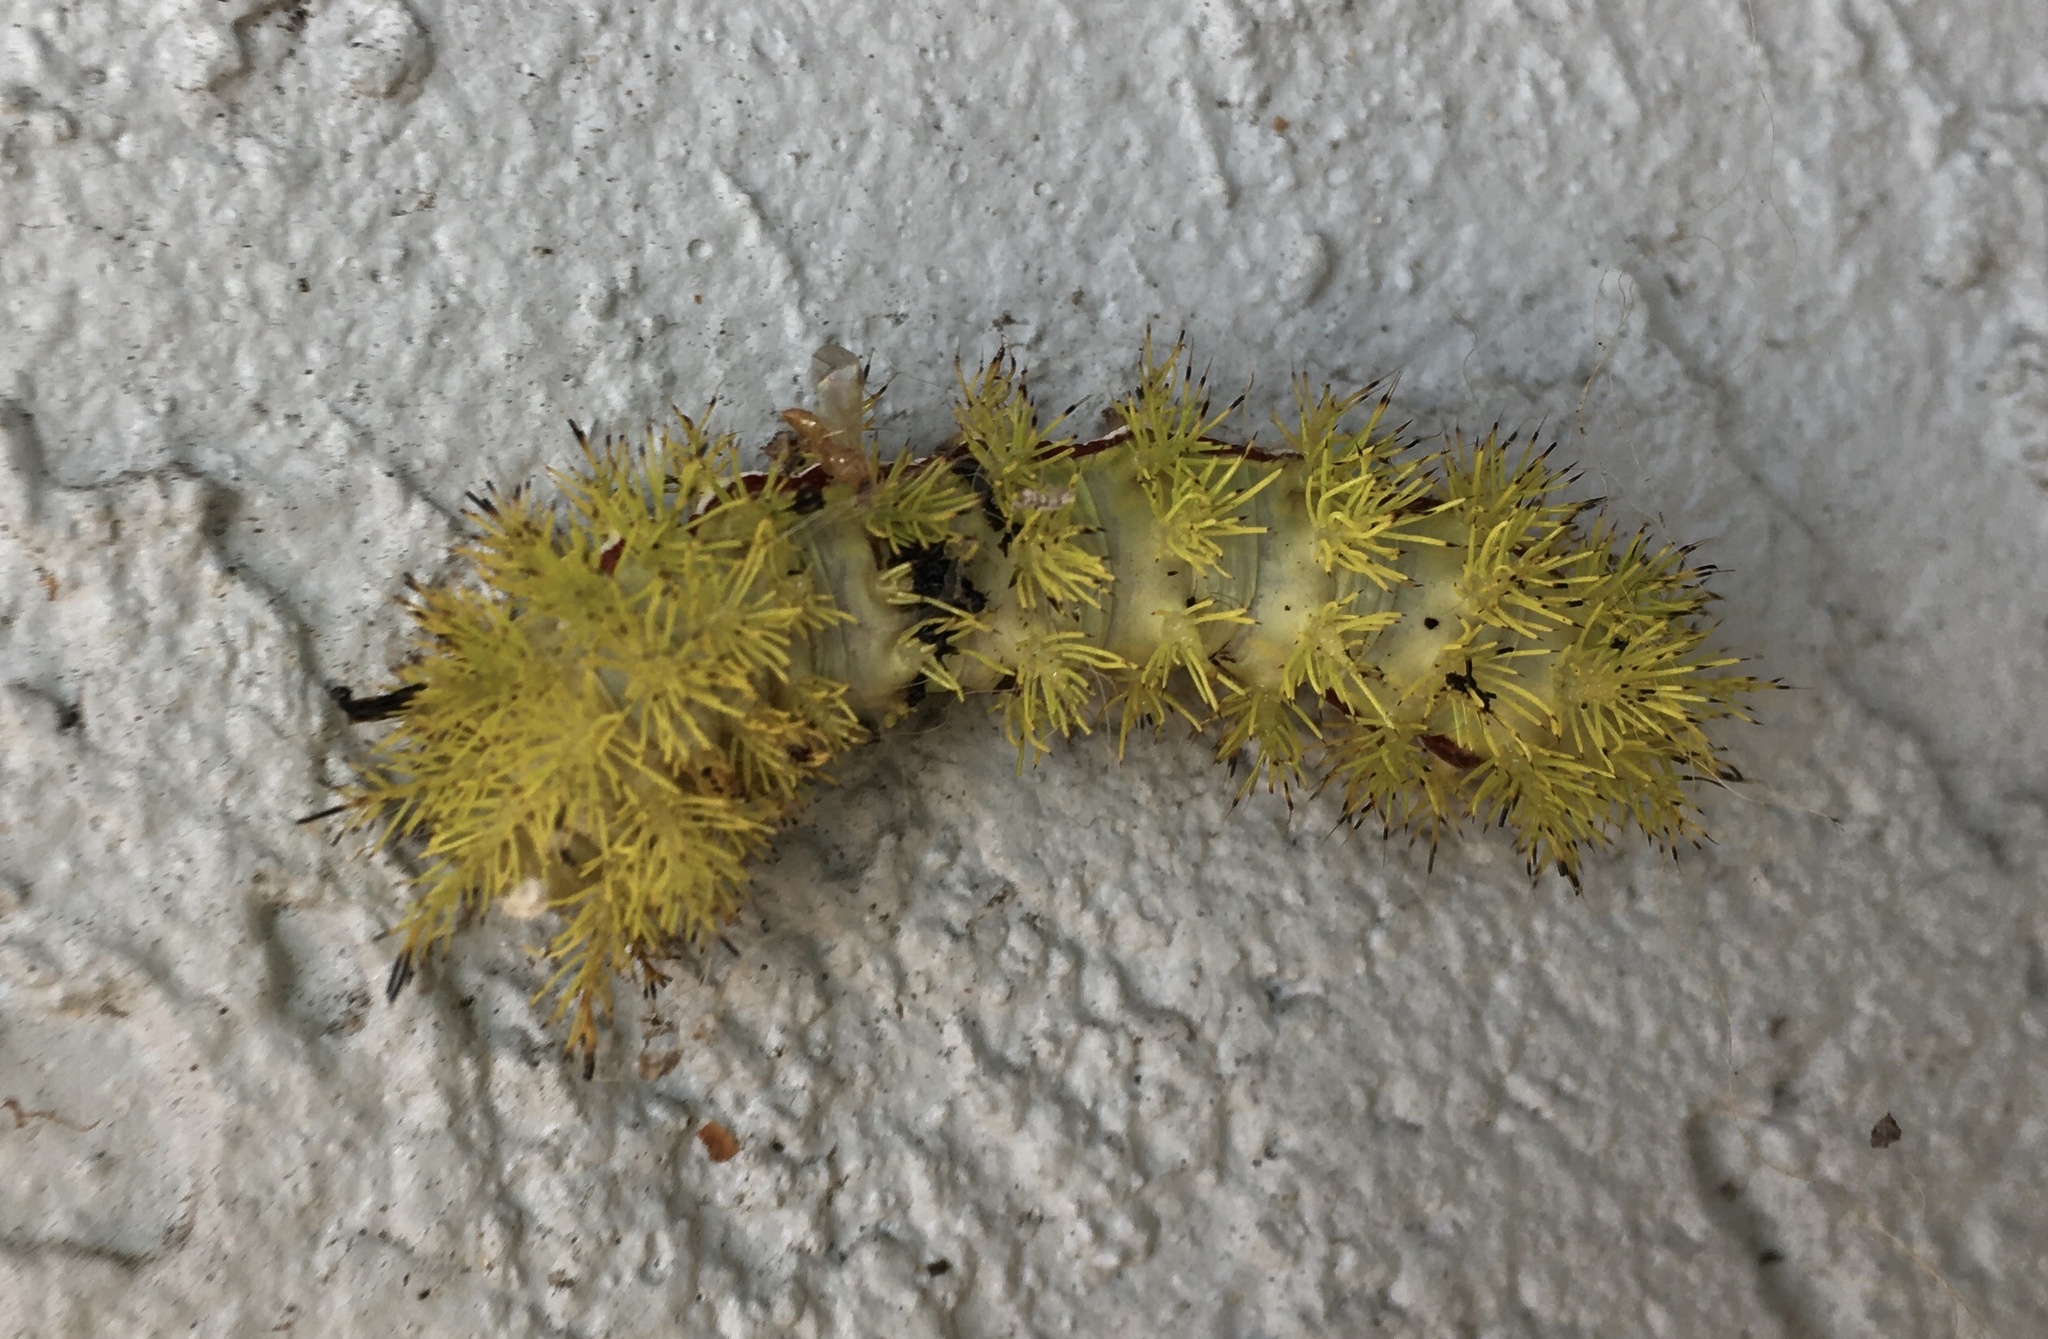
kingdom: Animalia
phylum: Arthropoda
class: Insecta
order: Lepidoptera
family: Saturniidae
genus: Automeris
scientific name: Automeris io
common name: Io moth
